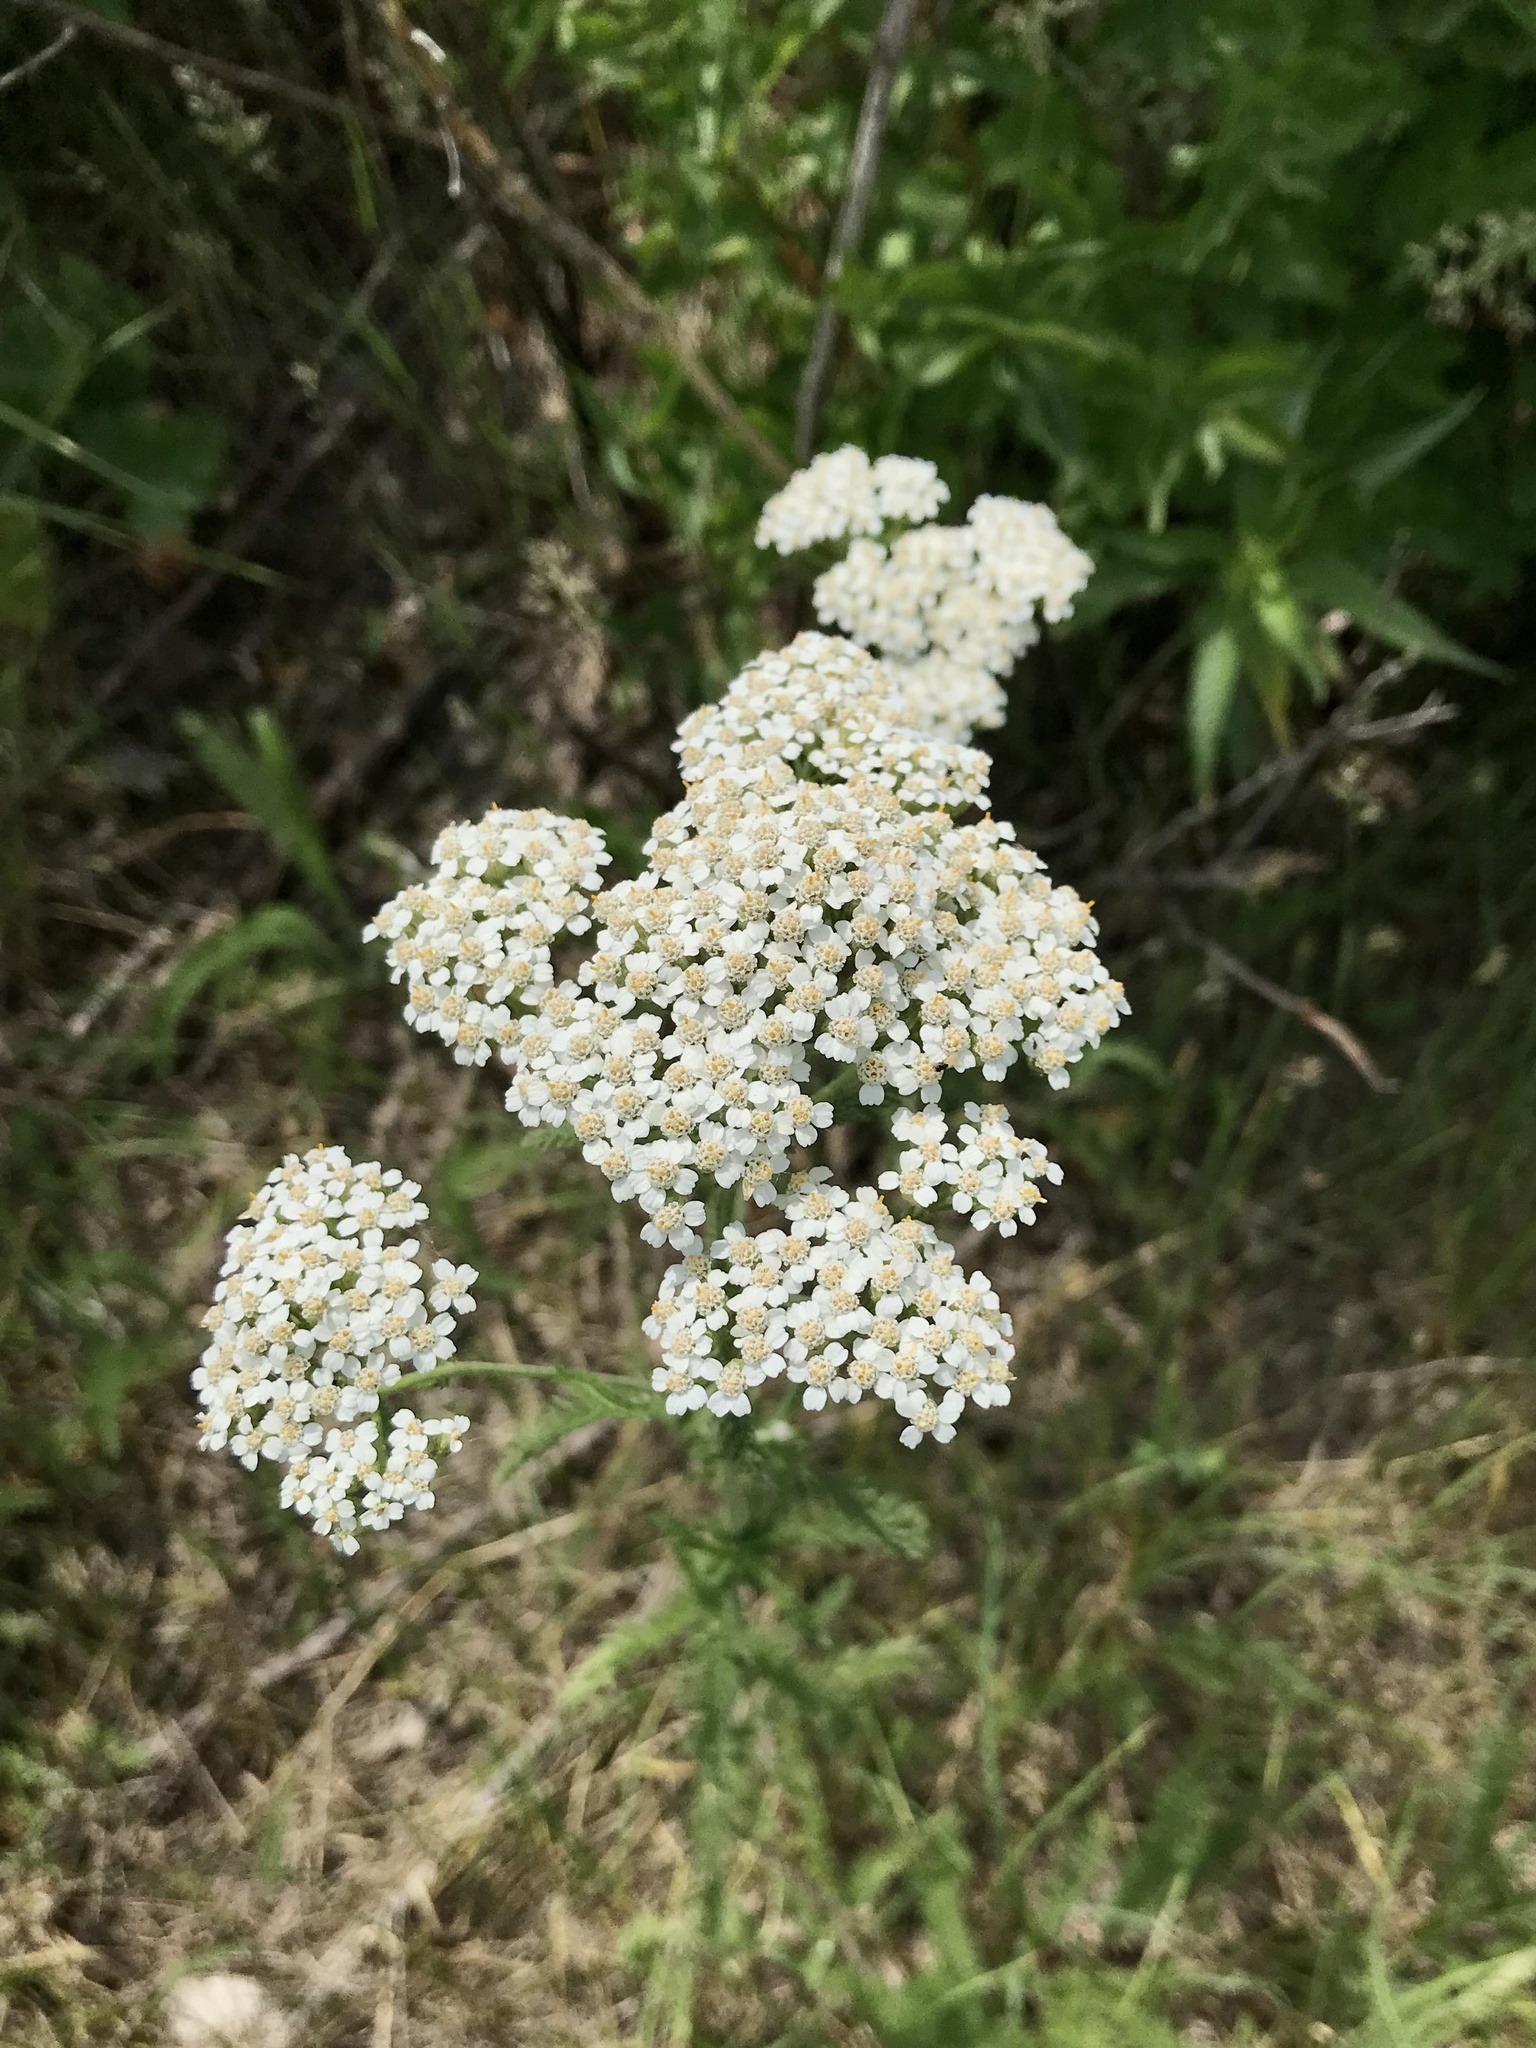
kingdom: Plantae
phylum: Tracheophyta
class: Magnoliopsida
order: Asterales
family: Asteraceae
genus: Achillea
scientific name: Achillea millefolium
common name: Yarrow
